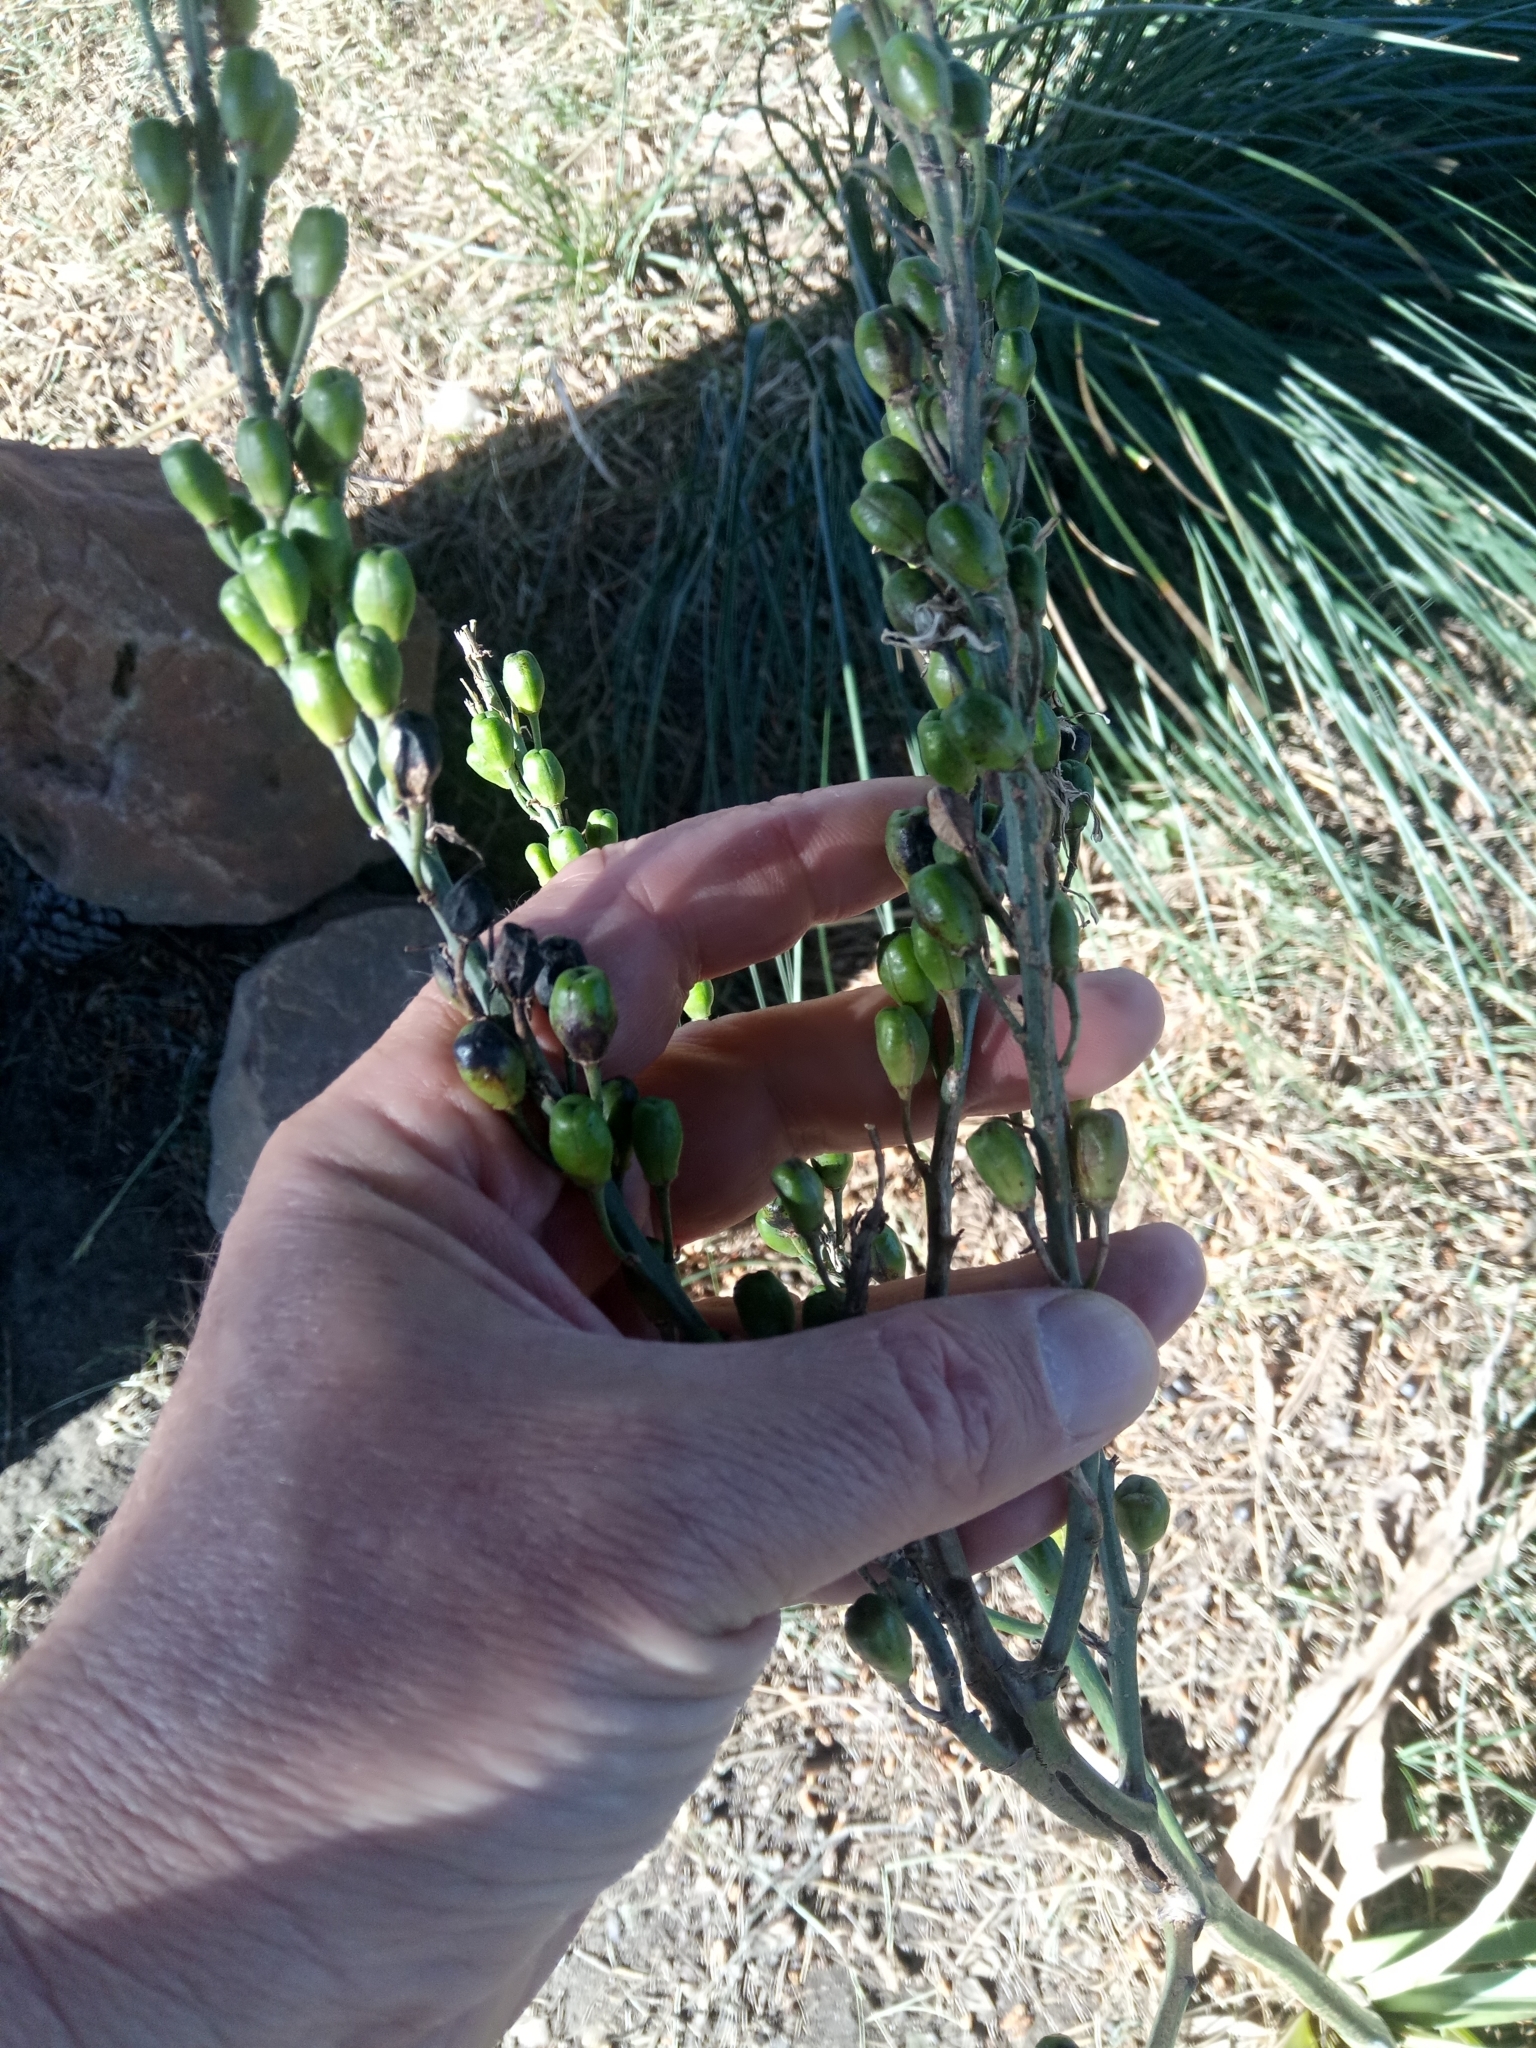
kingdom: Plantae
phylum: Tracheophyta
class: Liliopsida
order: Asparagales
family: Asphodelaceae
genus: Asphodelus
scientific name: Asphodelus ramosus
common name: Silverrod
